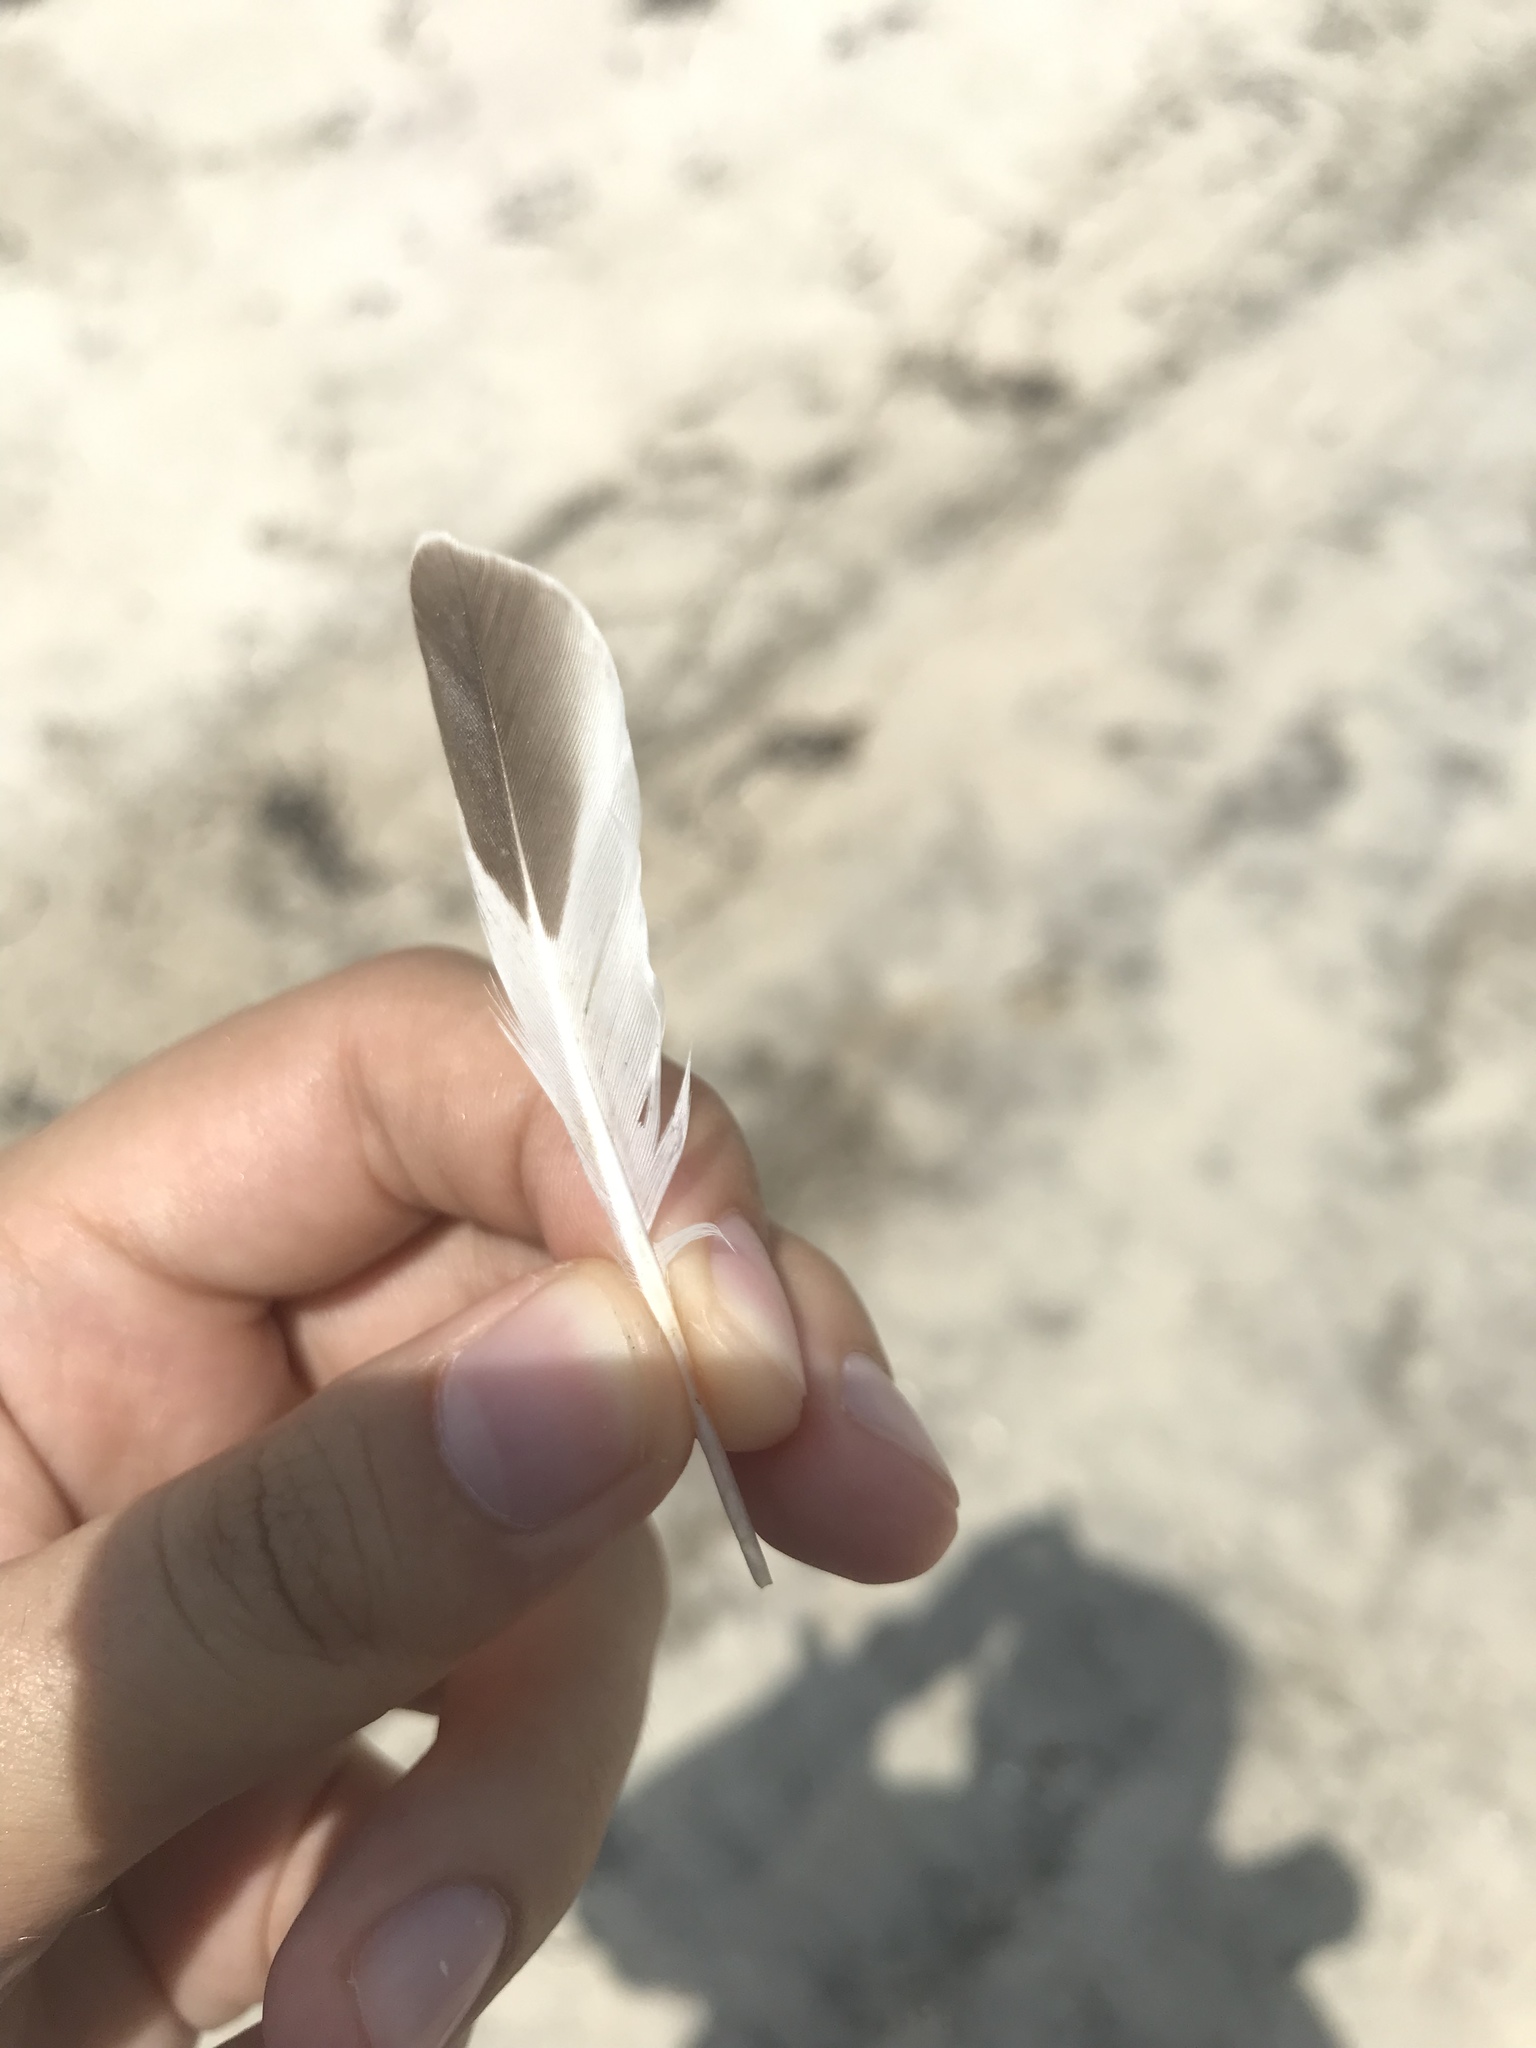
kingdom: Animalia
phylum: Chordata
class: Aves
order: Charadriiformes
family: Scolopacidae
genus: Arenaria
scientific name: Arenaria interpres
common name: Ruddy turnstone
